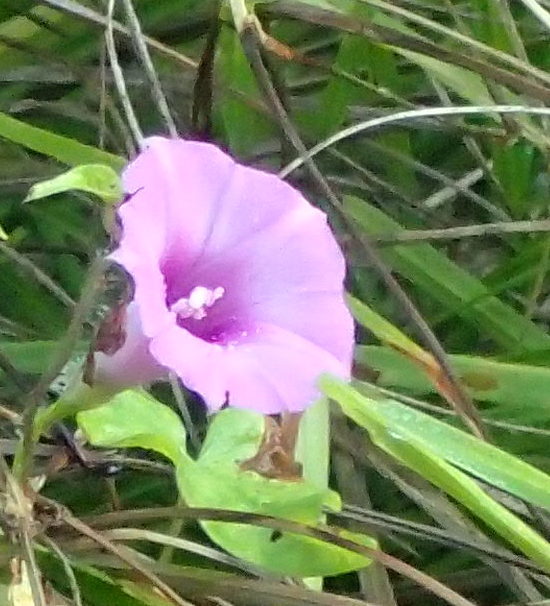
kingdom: Plantae
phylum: Tracheophyta
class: Magnoliopsida
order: Solanales
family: Convolvulaceae
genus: Ipomoea
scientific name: Ipomoea cordatotriloba
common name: Cotton morning glory
